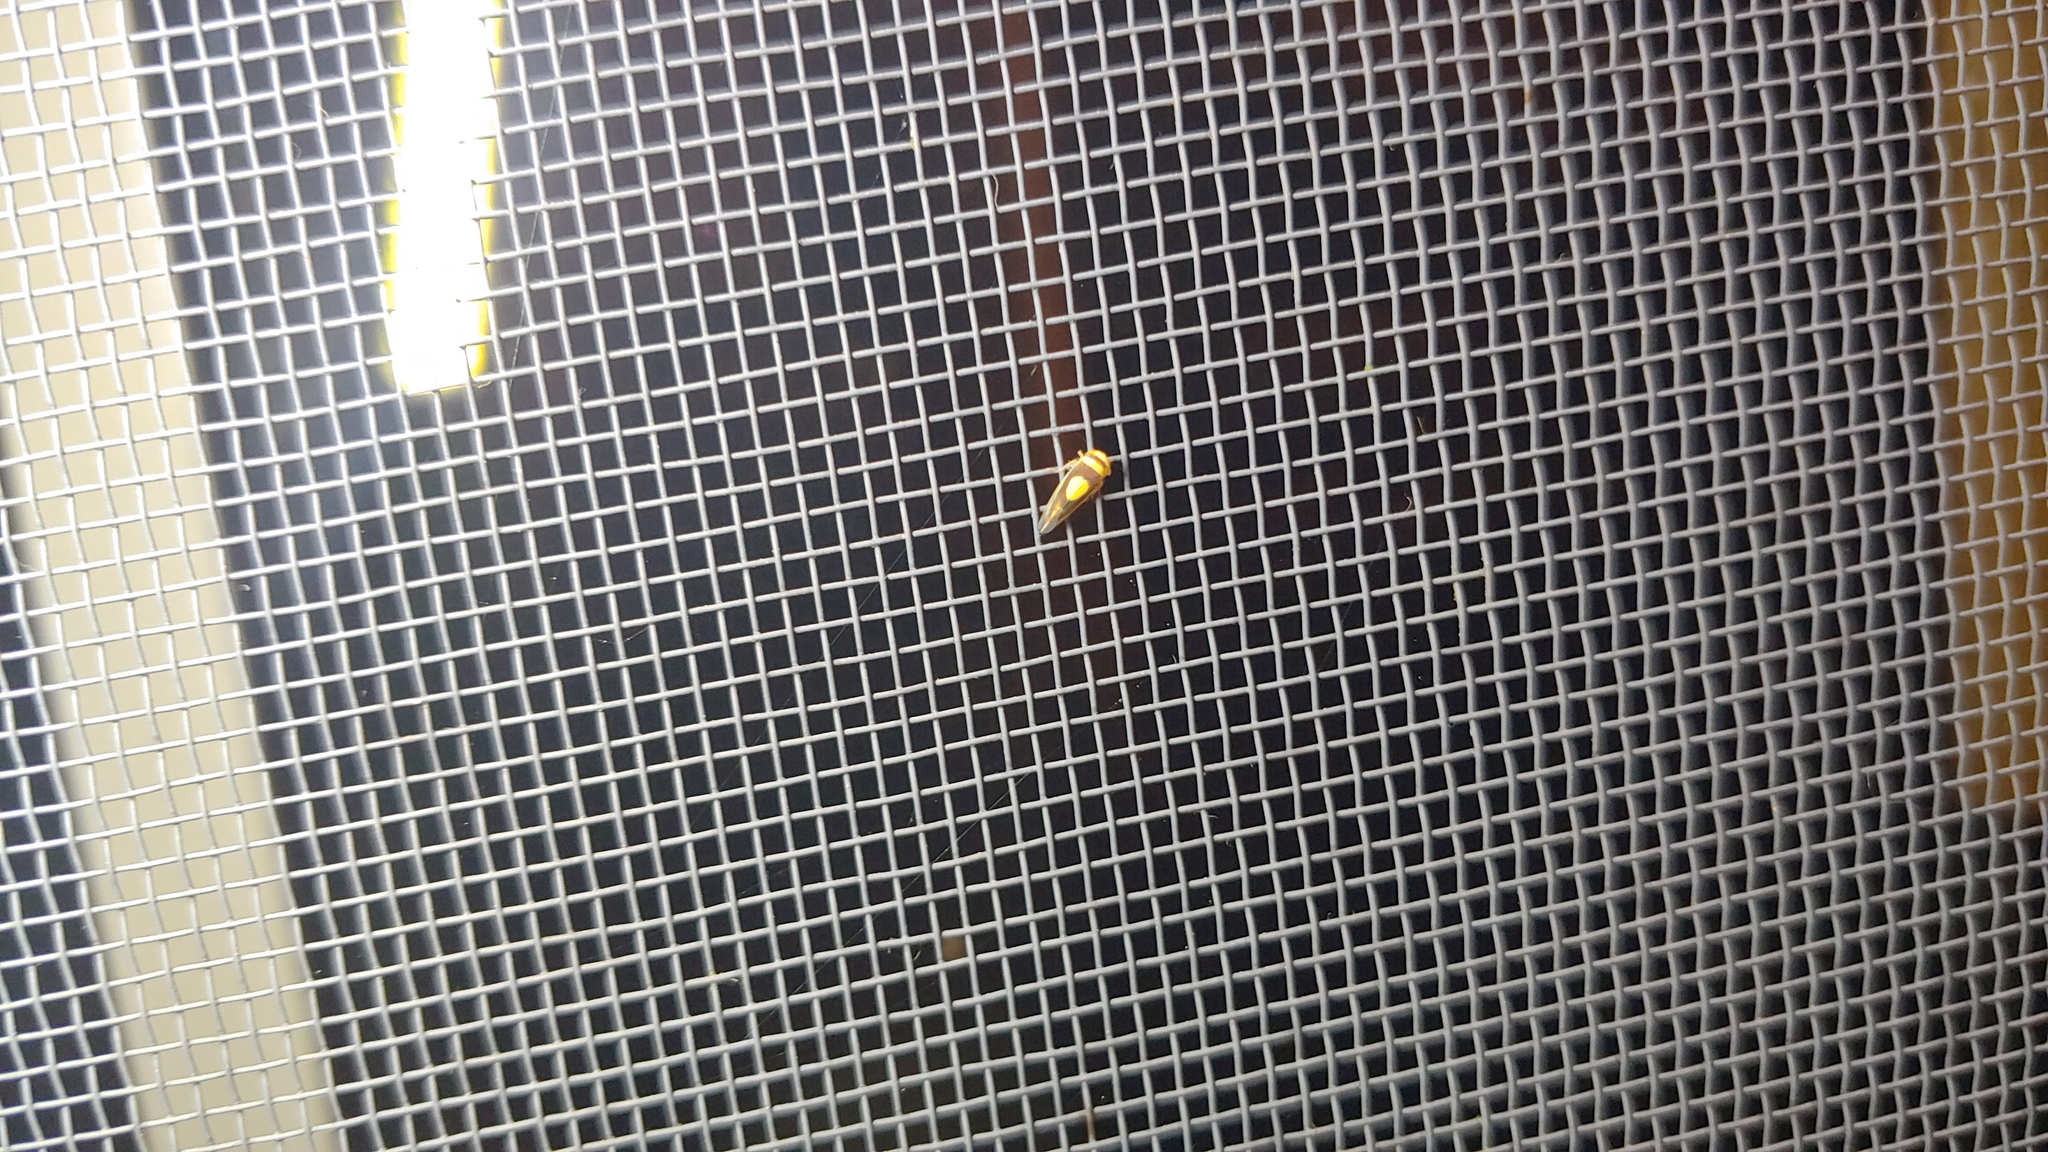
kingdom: Animalia
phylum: Arthropoda
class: Insecta
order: Hemiptera
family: Cicadellidae
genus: Colladonus
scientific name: Colladonus clitellarius
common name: The saddleback leafhopper
